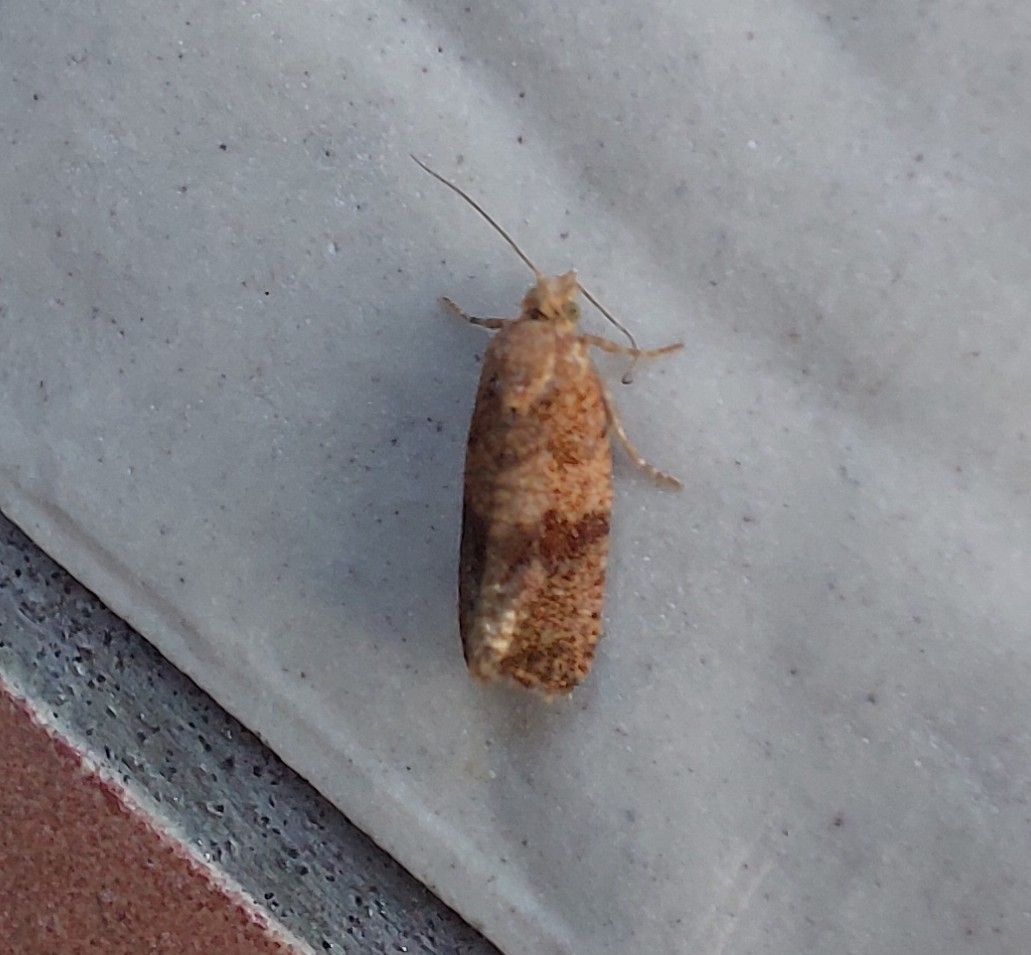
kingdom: Animalia
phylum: Arthropoda
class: Insecta
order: Lepidoptera
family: Tortricidae
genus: Celypha
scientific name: Celypha striana
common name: Barred marble
